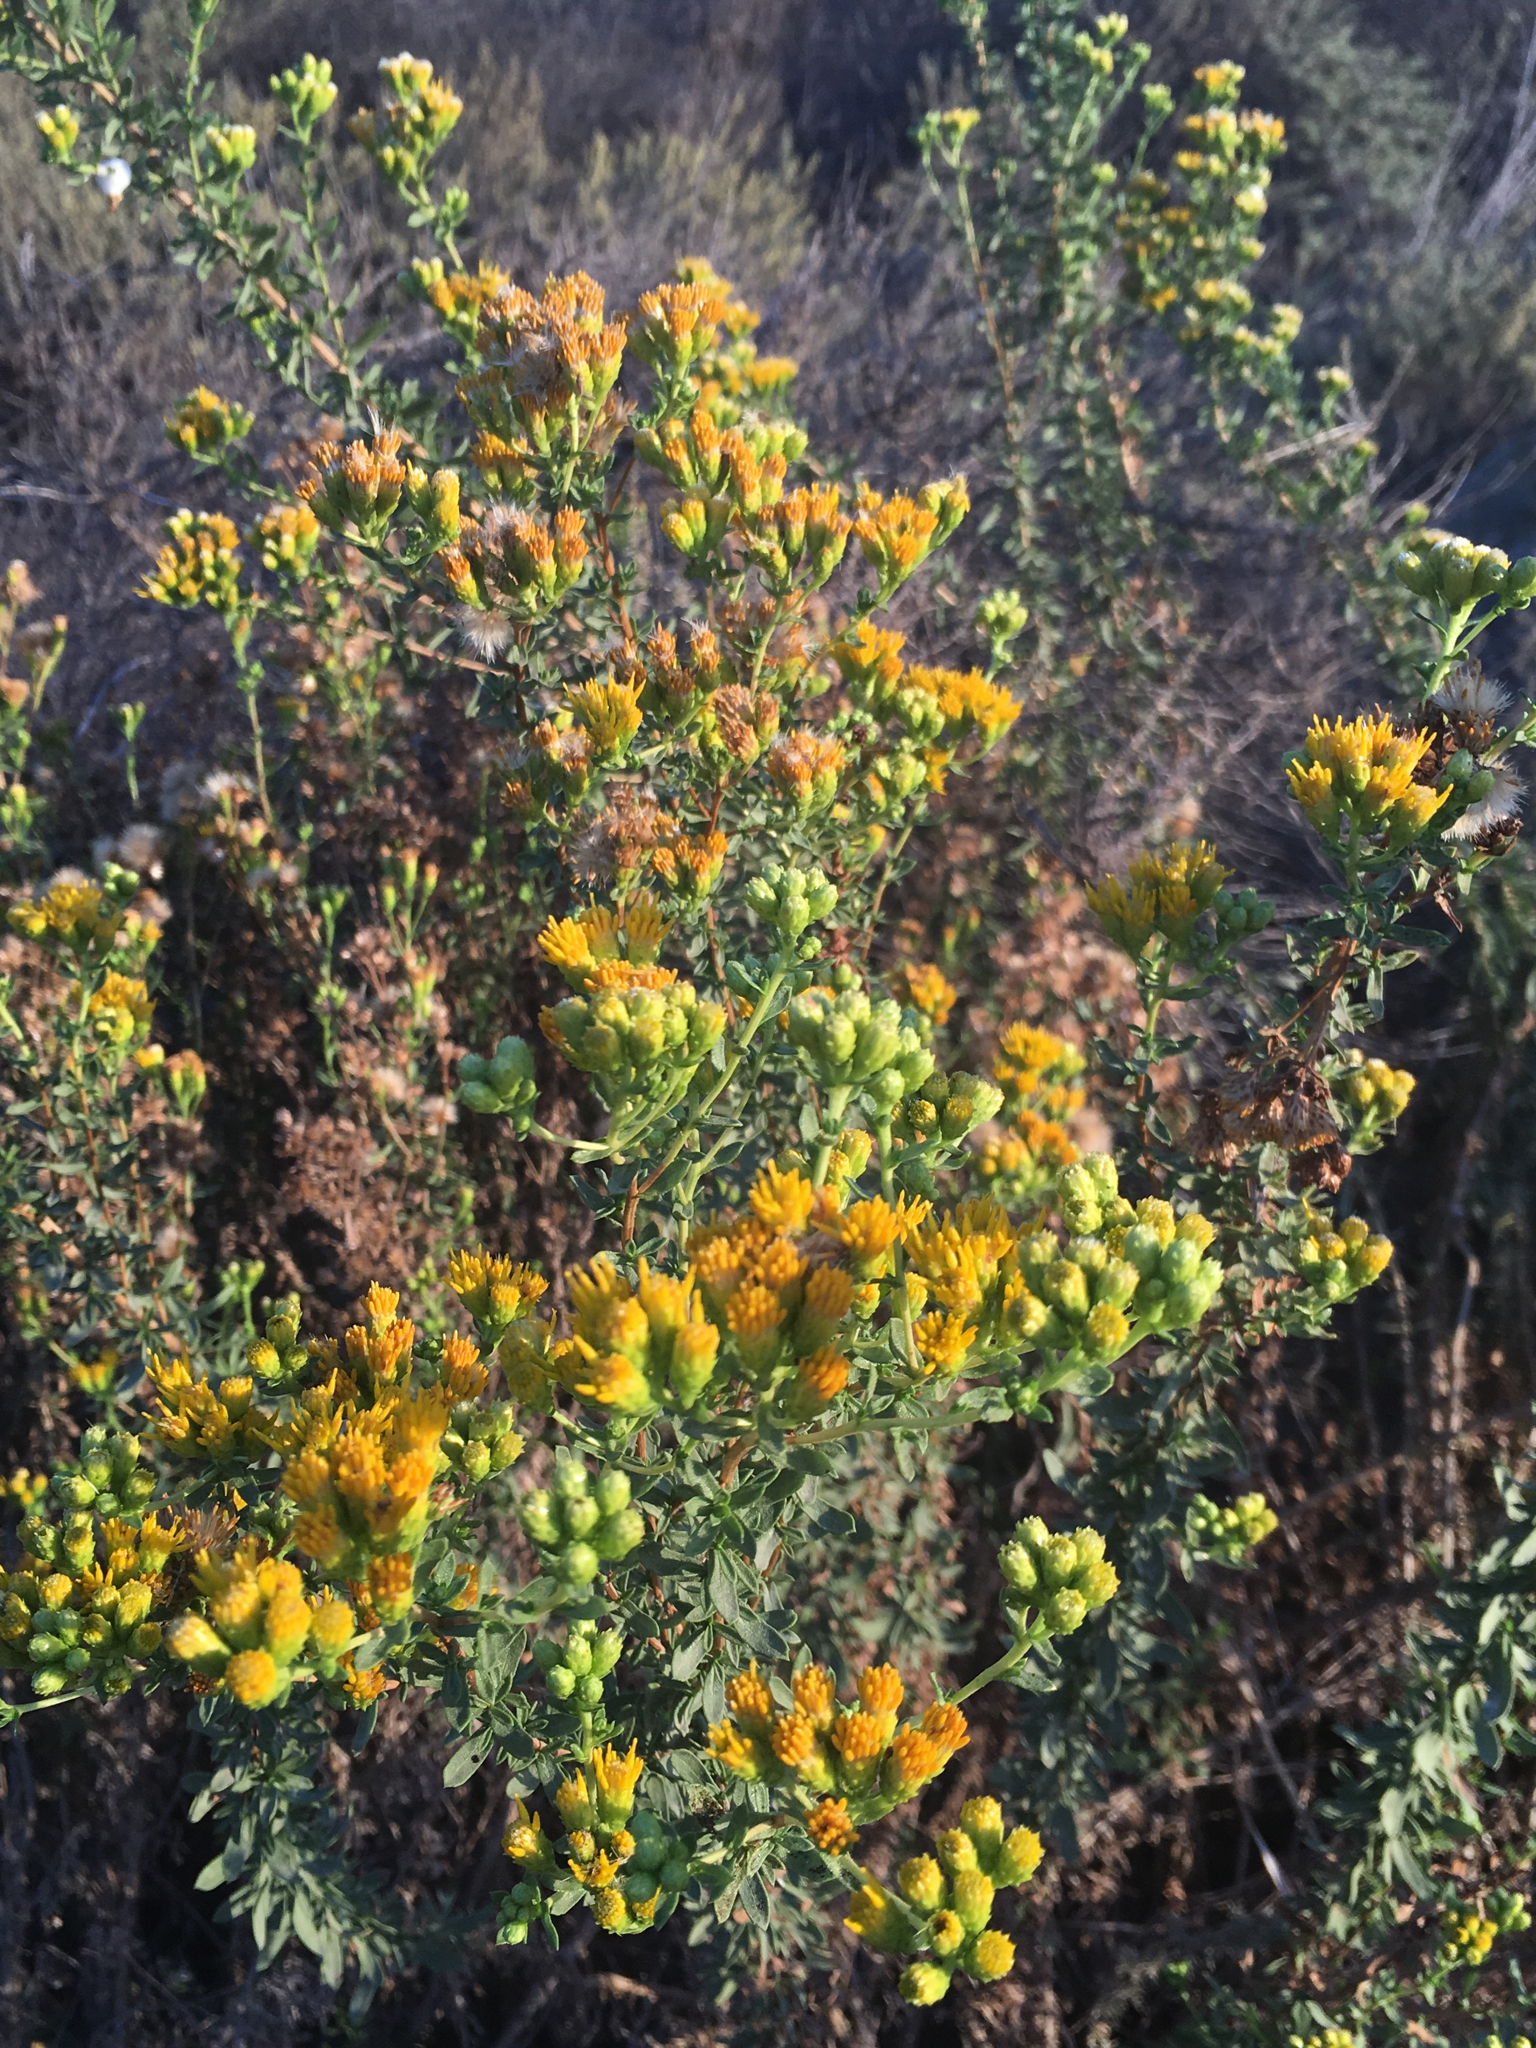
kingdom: Plantae
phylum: Tracheophyta
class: Magnoliopsida
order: Asterales
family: Asteraceae
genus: Isocoma
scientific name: Isocoma menziesii
